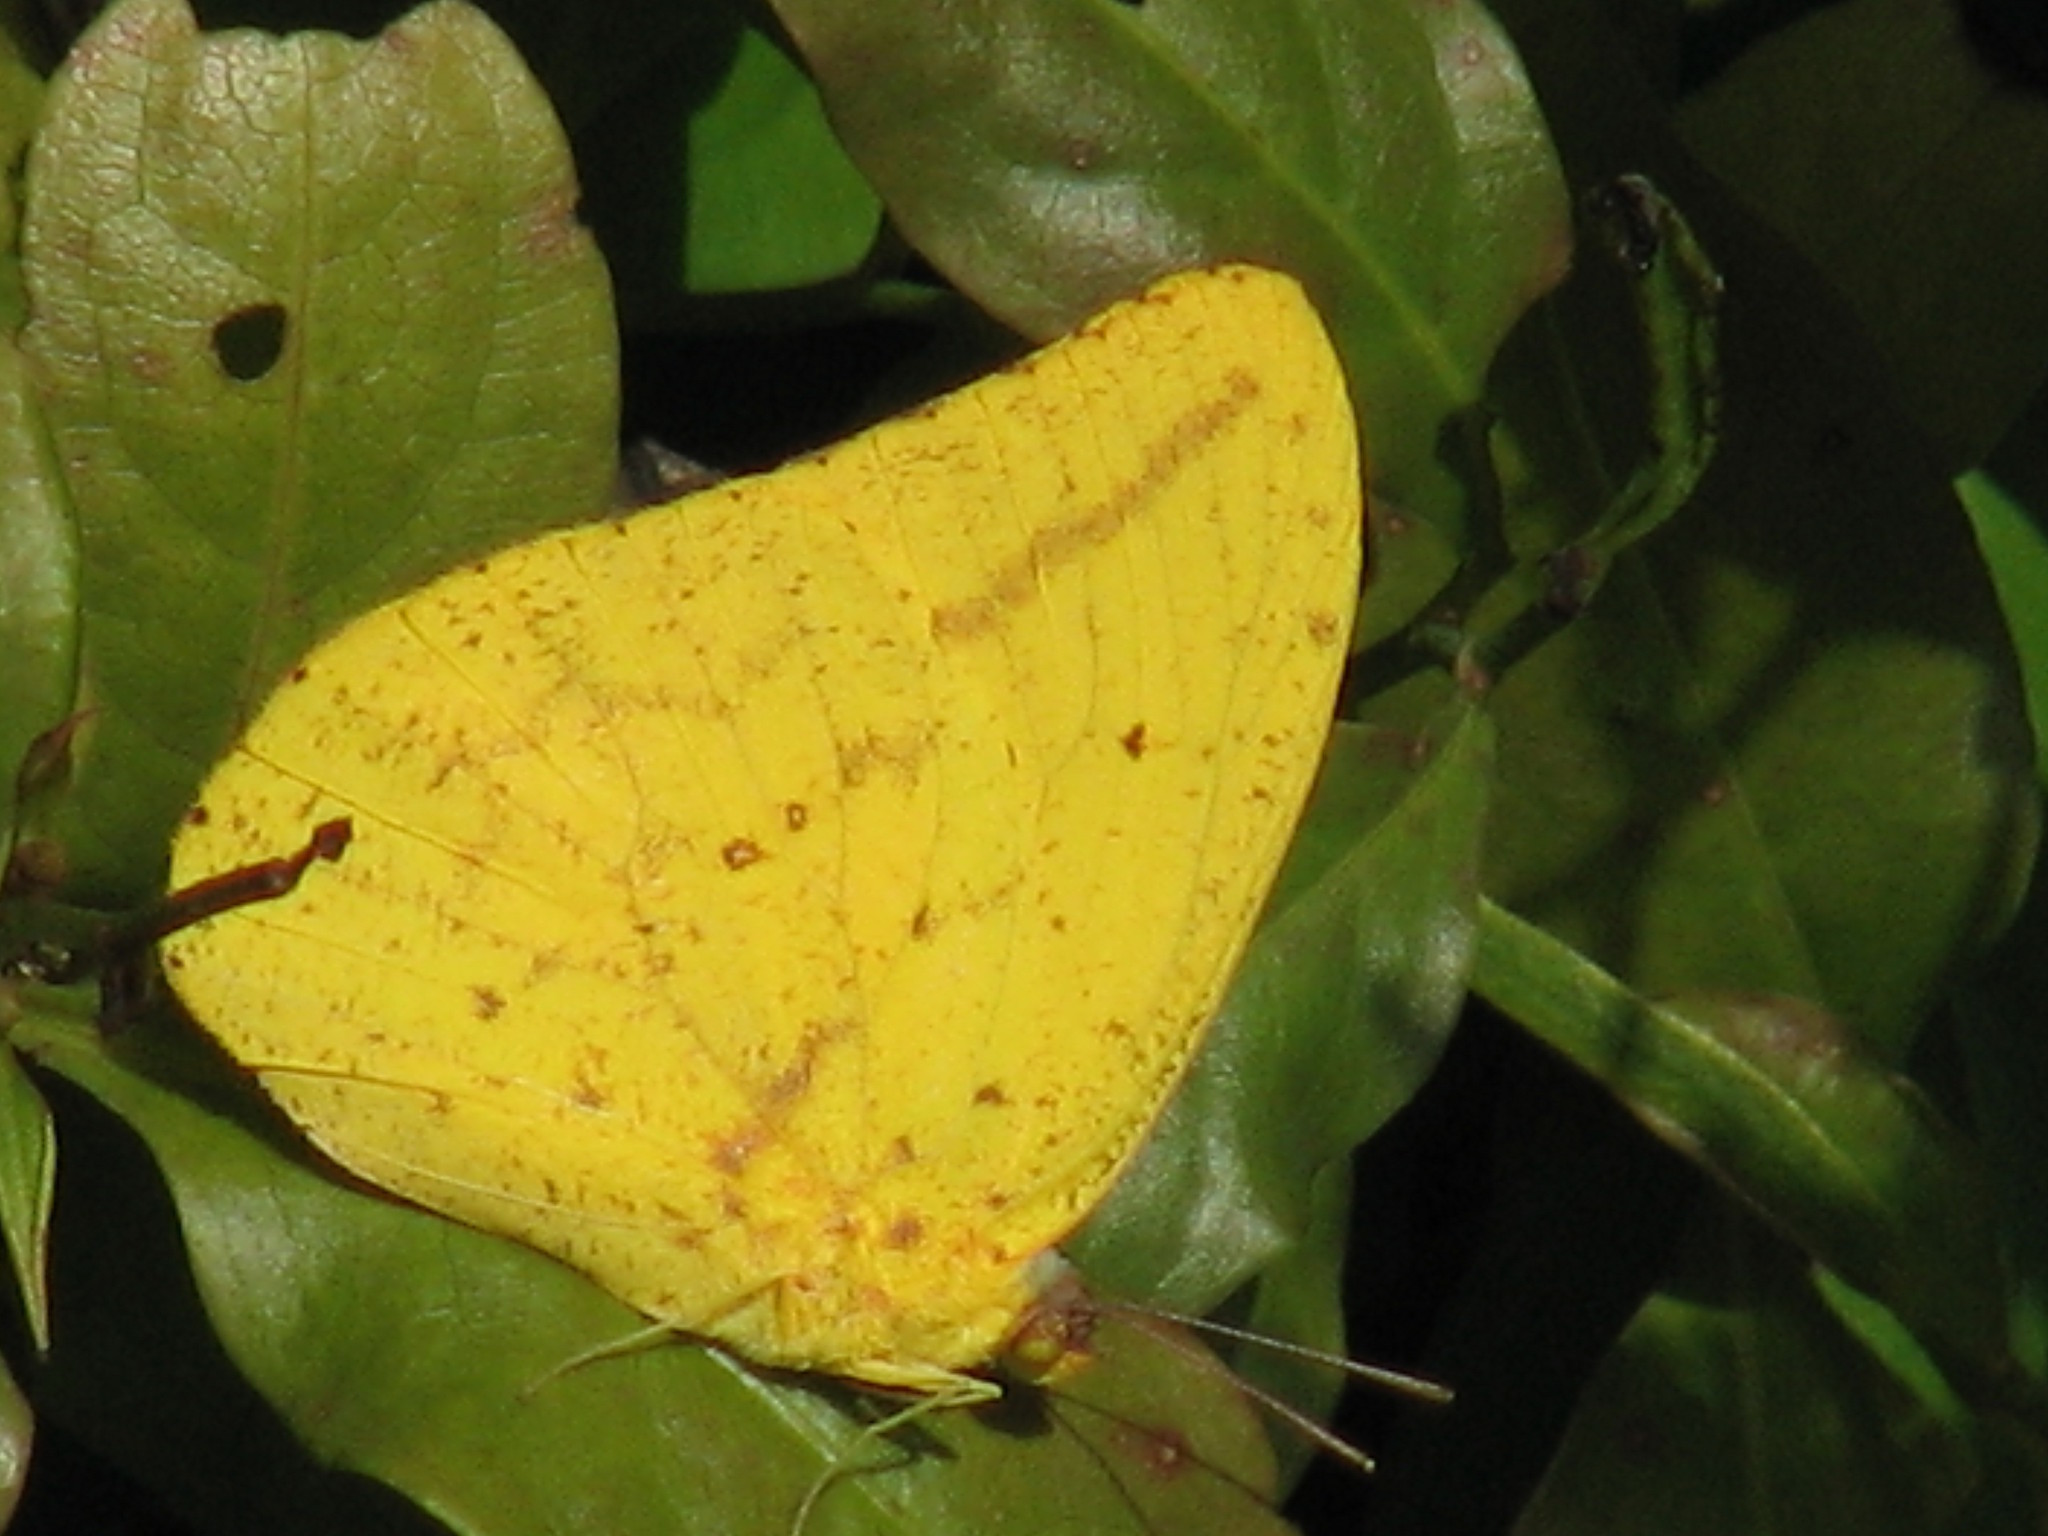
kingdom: Animalia
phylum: Arthropoda
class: Insecta
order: Lepidoptera
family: Pieridae
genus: Phoebis
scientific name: Phoebis agarithe
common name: Large orange sulphur
